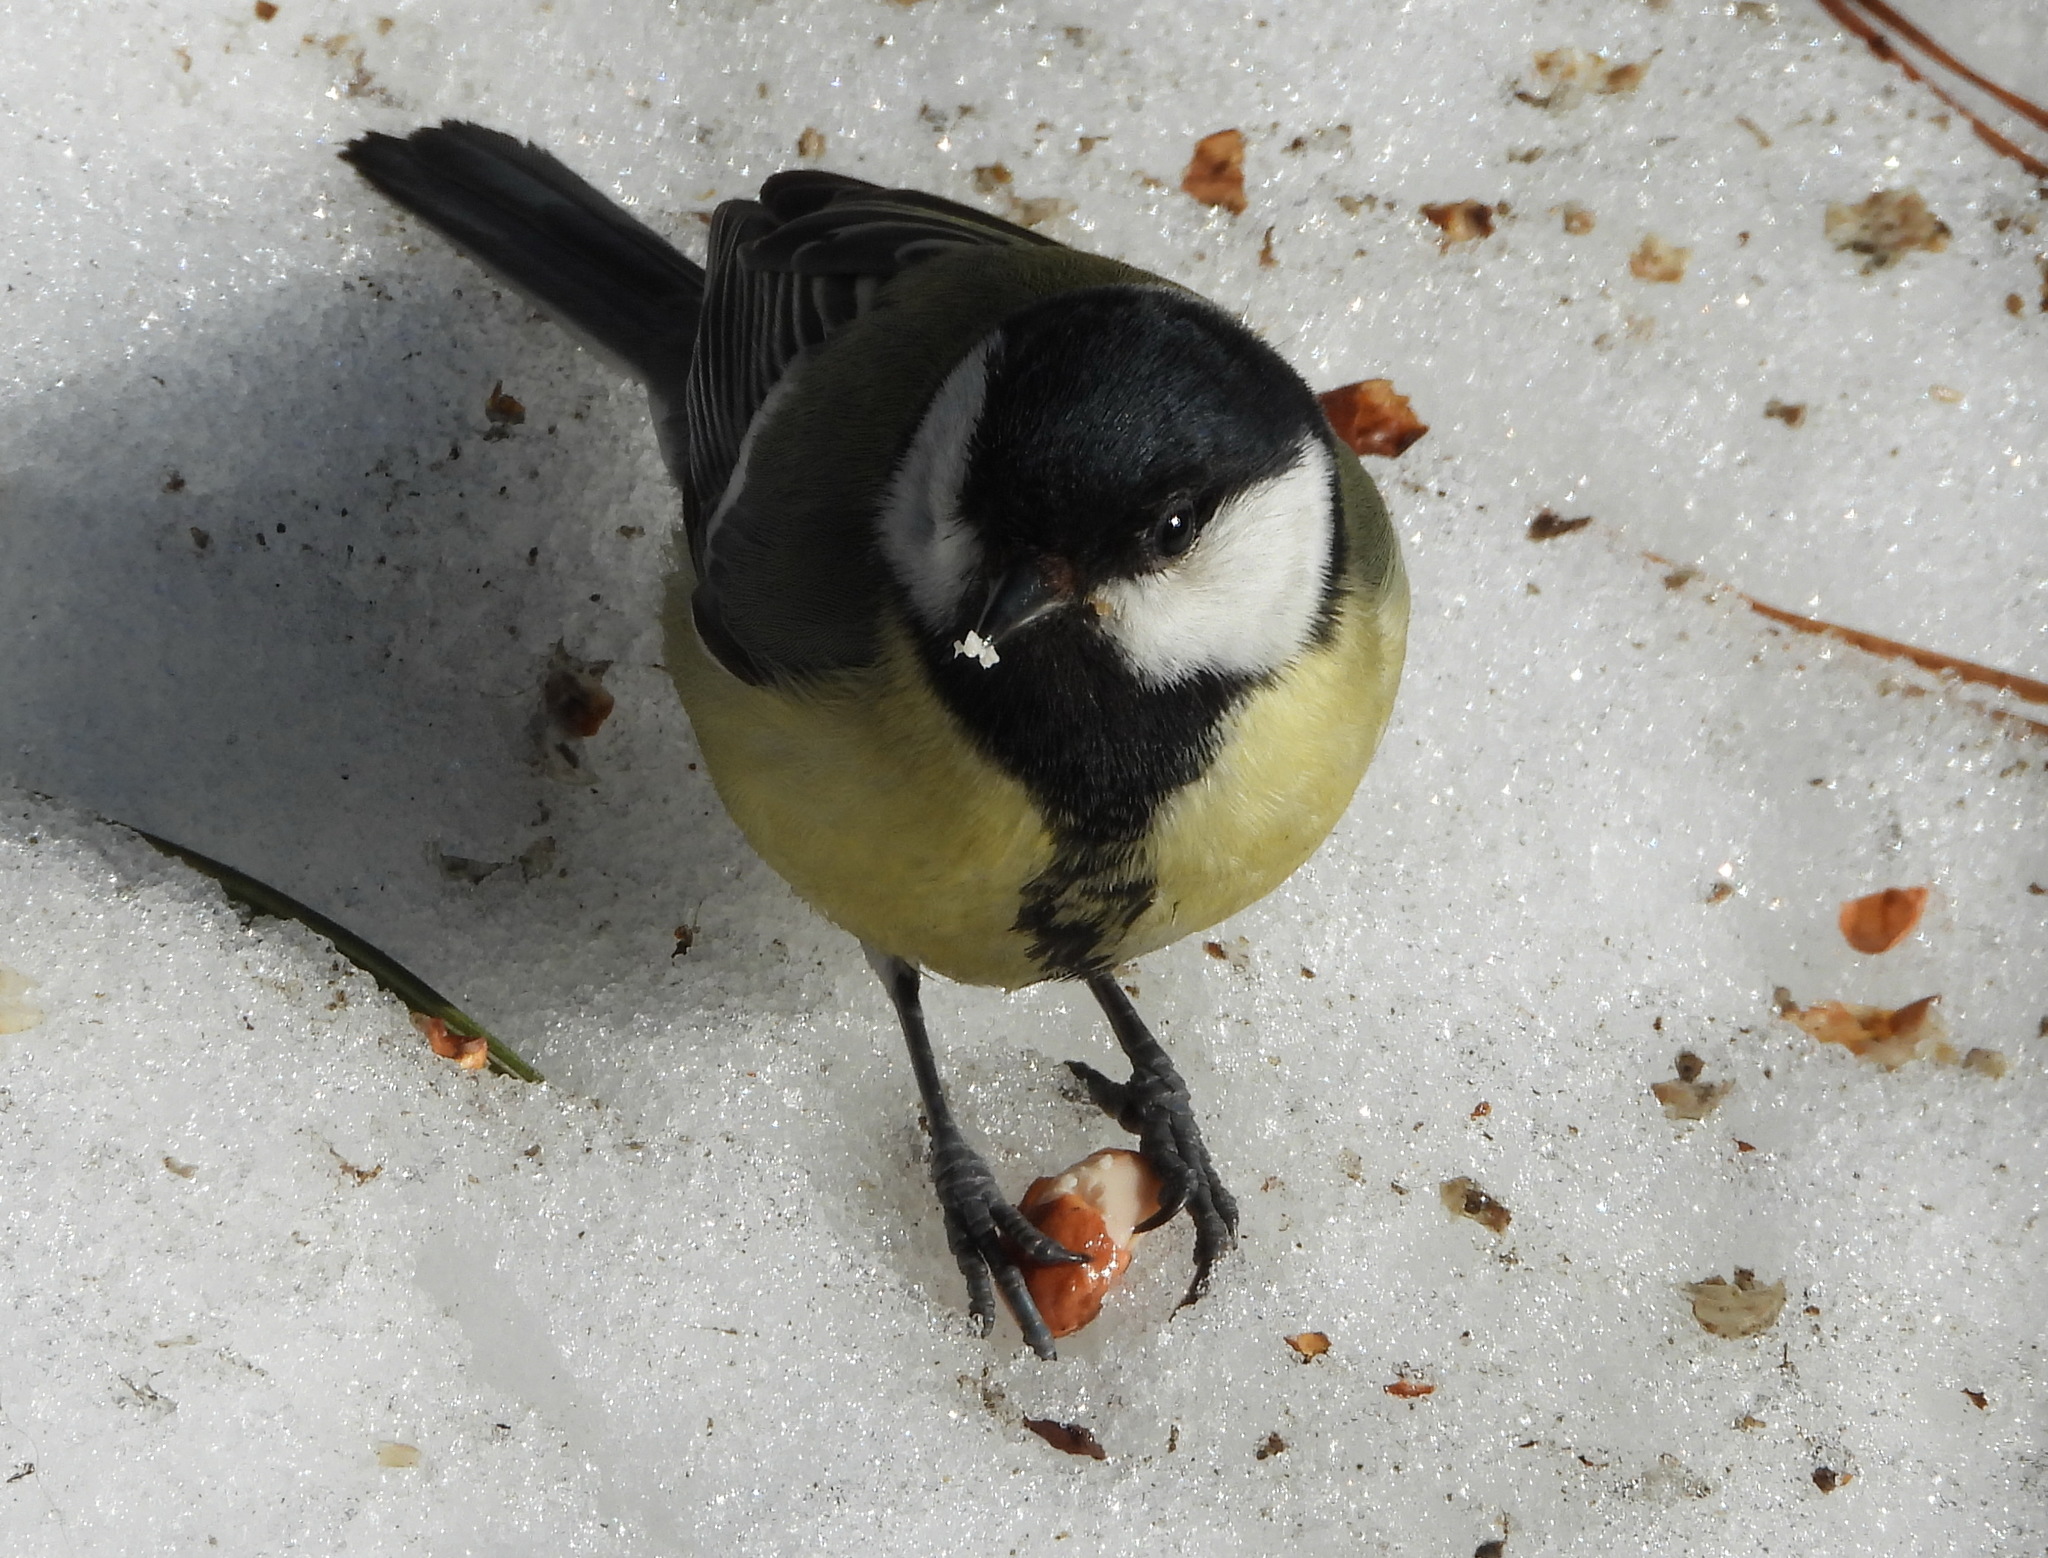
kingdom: Animalia
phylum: Chordata
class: Aves
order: Passeriformes
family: Paridae
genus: Parus
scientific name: Parus major
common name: Great tit
